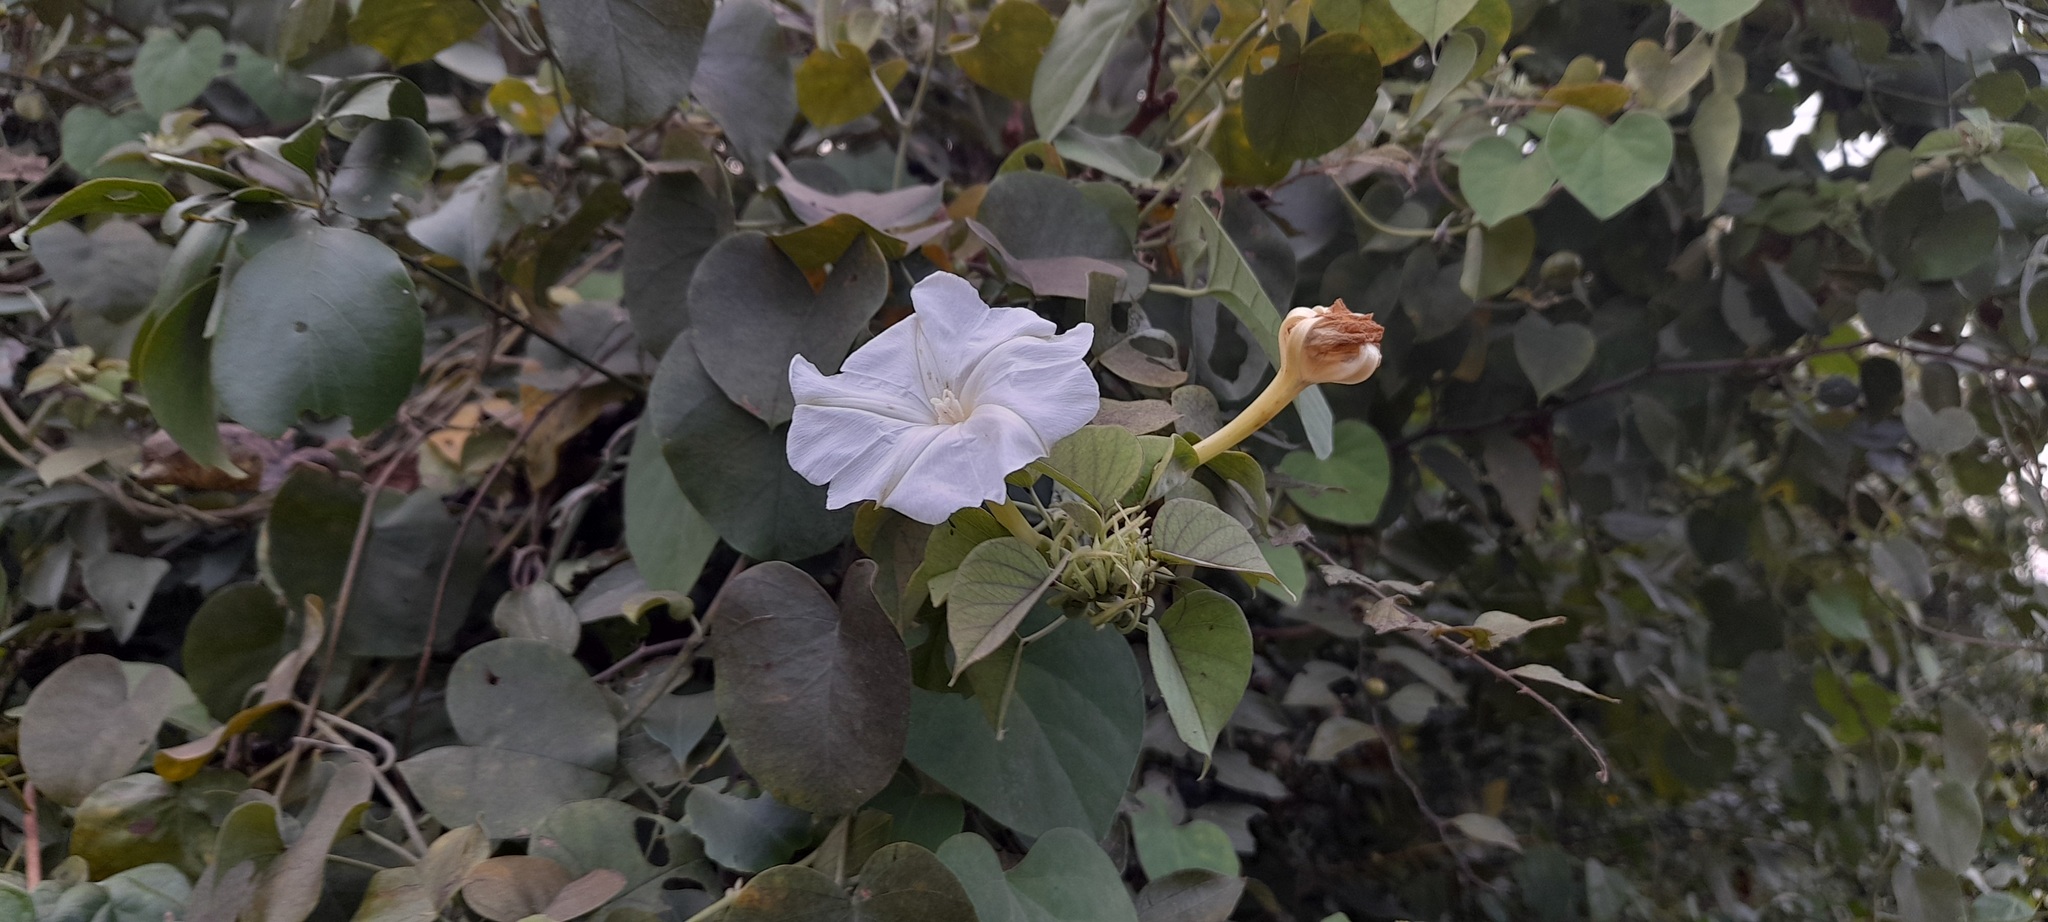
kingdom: Plantae
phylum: Tracheophyta
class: Magnoliopsida
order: Solanales
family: Convolvulaceae
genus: Rivea
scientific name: Rivea hypocrateriformis
